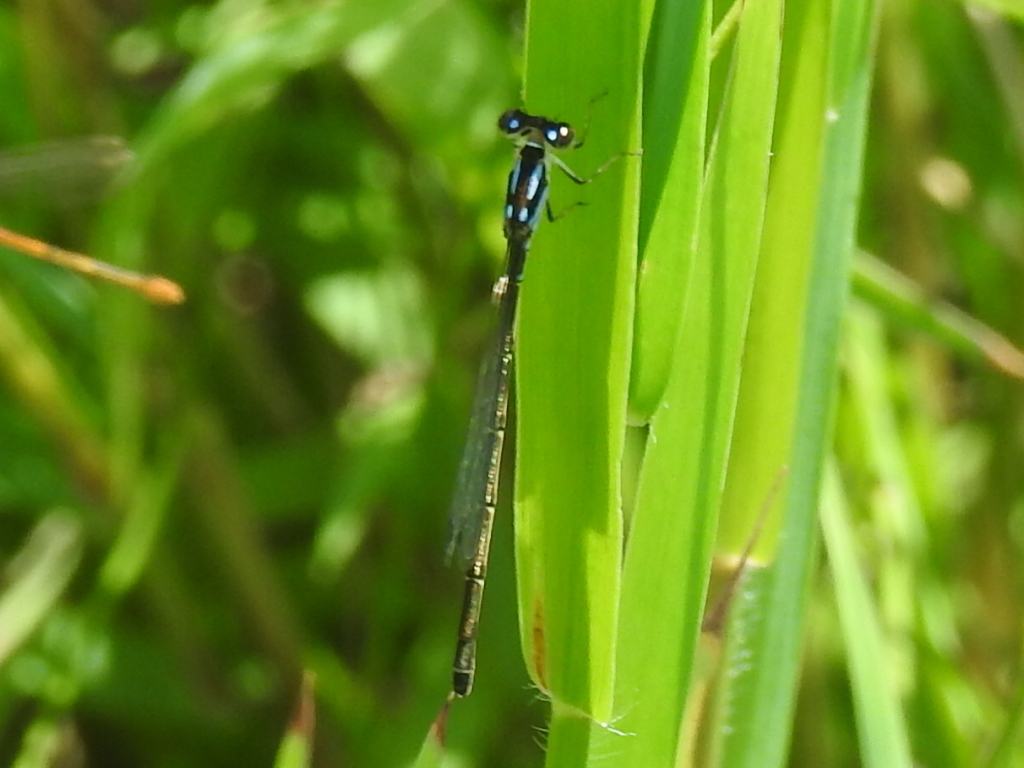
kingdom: Animalia
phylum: Arthropoda
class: Insecta
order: Odonata
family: Coenagrionidae
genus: Ischnura
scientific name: Ischnura posita
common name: Fragile forktail
